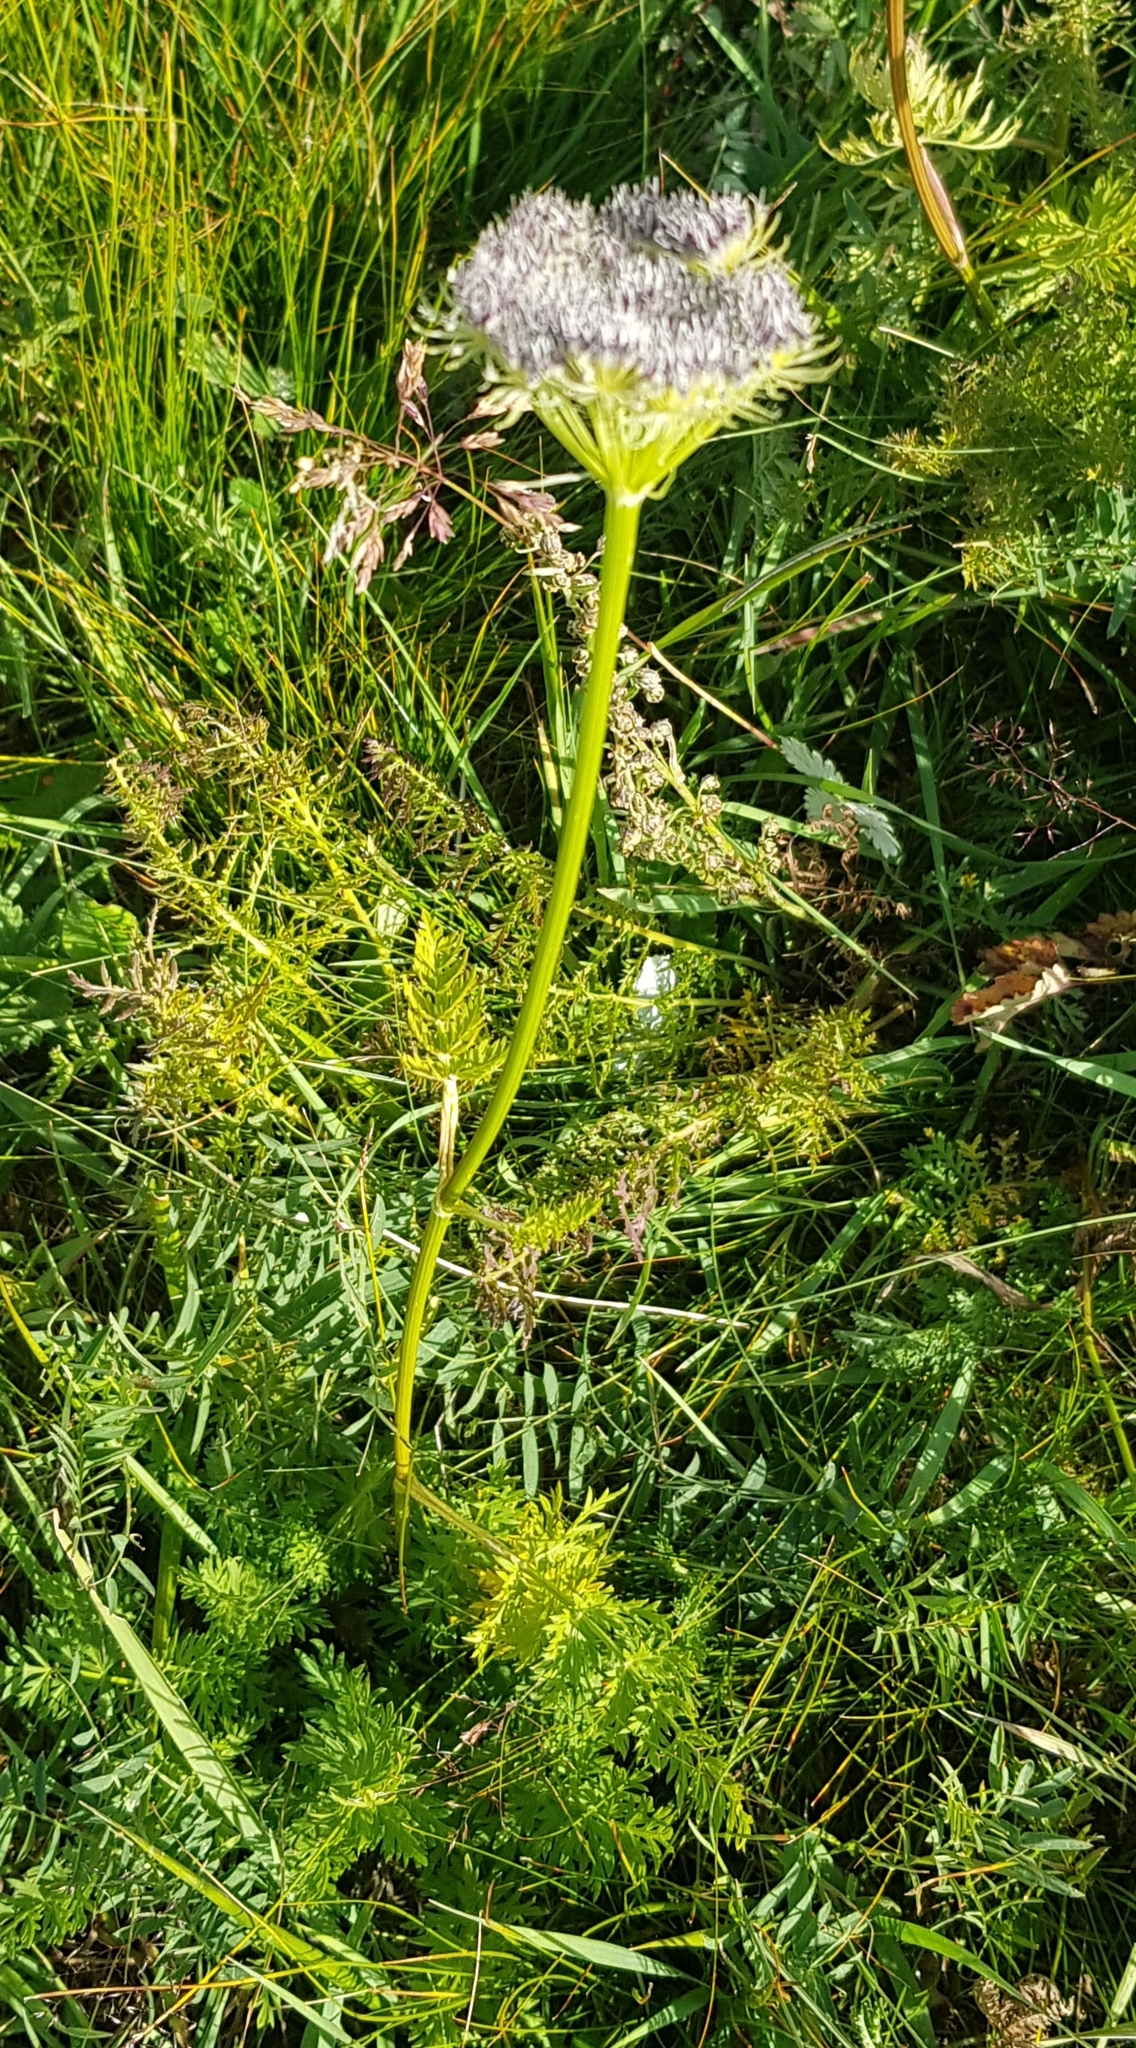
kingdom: Plantae
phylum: Tracheophyta
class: Magnoliopsida
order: Apiales
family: Apiaceae
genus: Seseli
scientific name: Seseli condensatum
